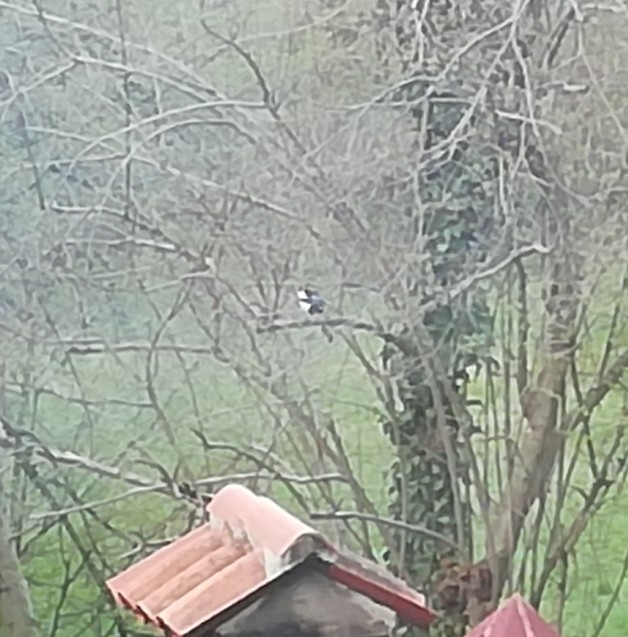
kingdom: Animalia
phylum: Chordata
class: Aves
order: Passeriformes
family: Corvidae
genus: Pica
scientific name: Pica pica
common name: Eurasian magpie
